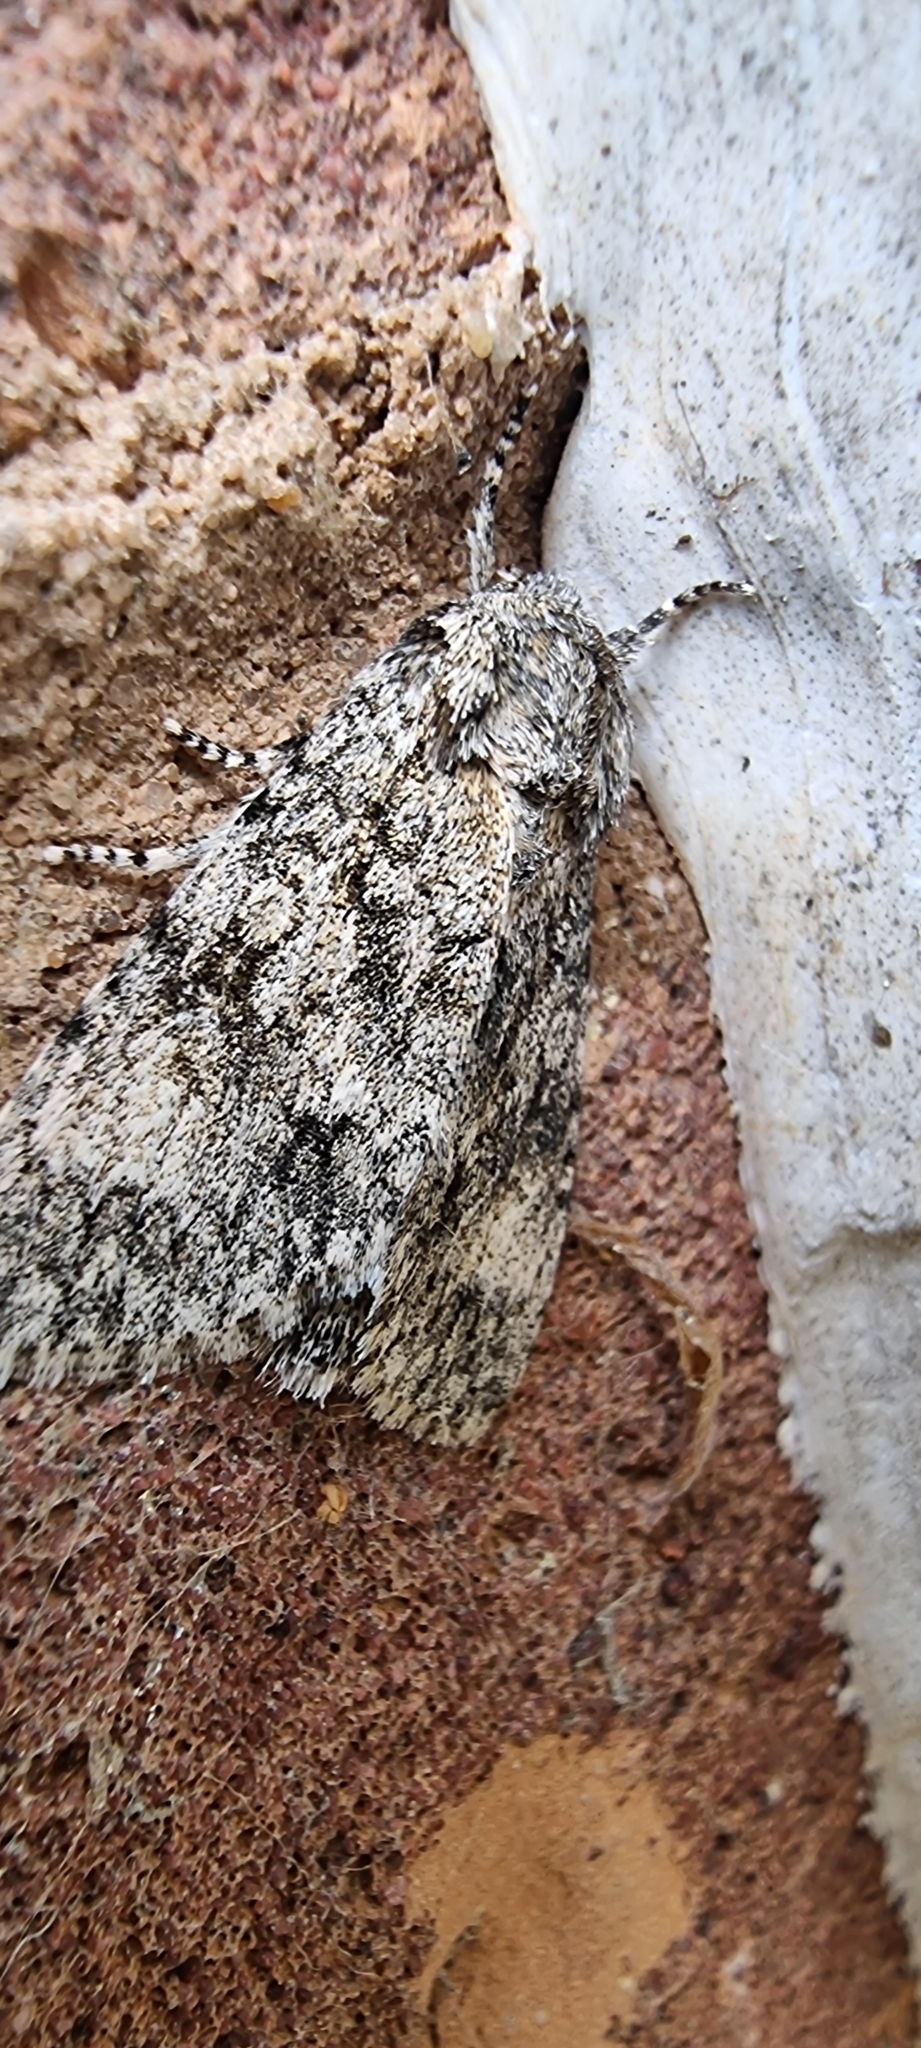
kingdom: Animalia
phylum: Arthropoda
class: Insecta
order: Lepidoptera
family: Noctuidae
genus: Acronicta
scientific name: Acronicta megacephala
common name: Poplar grey
